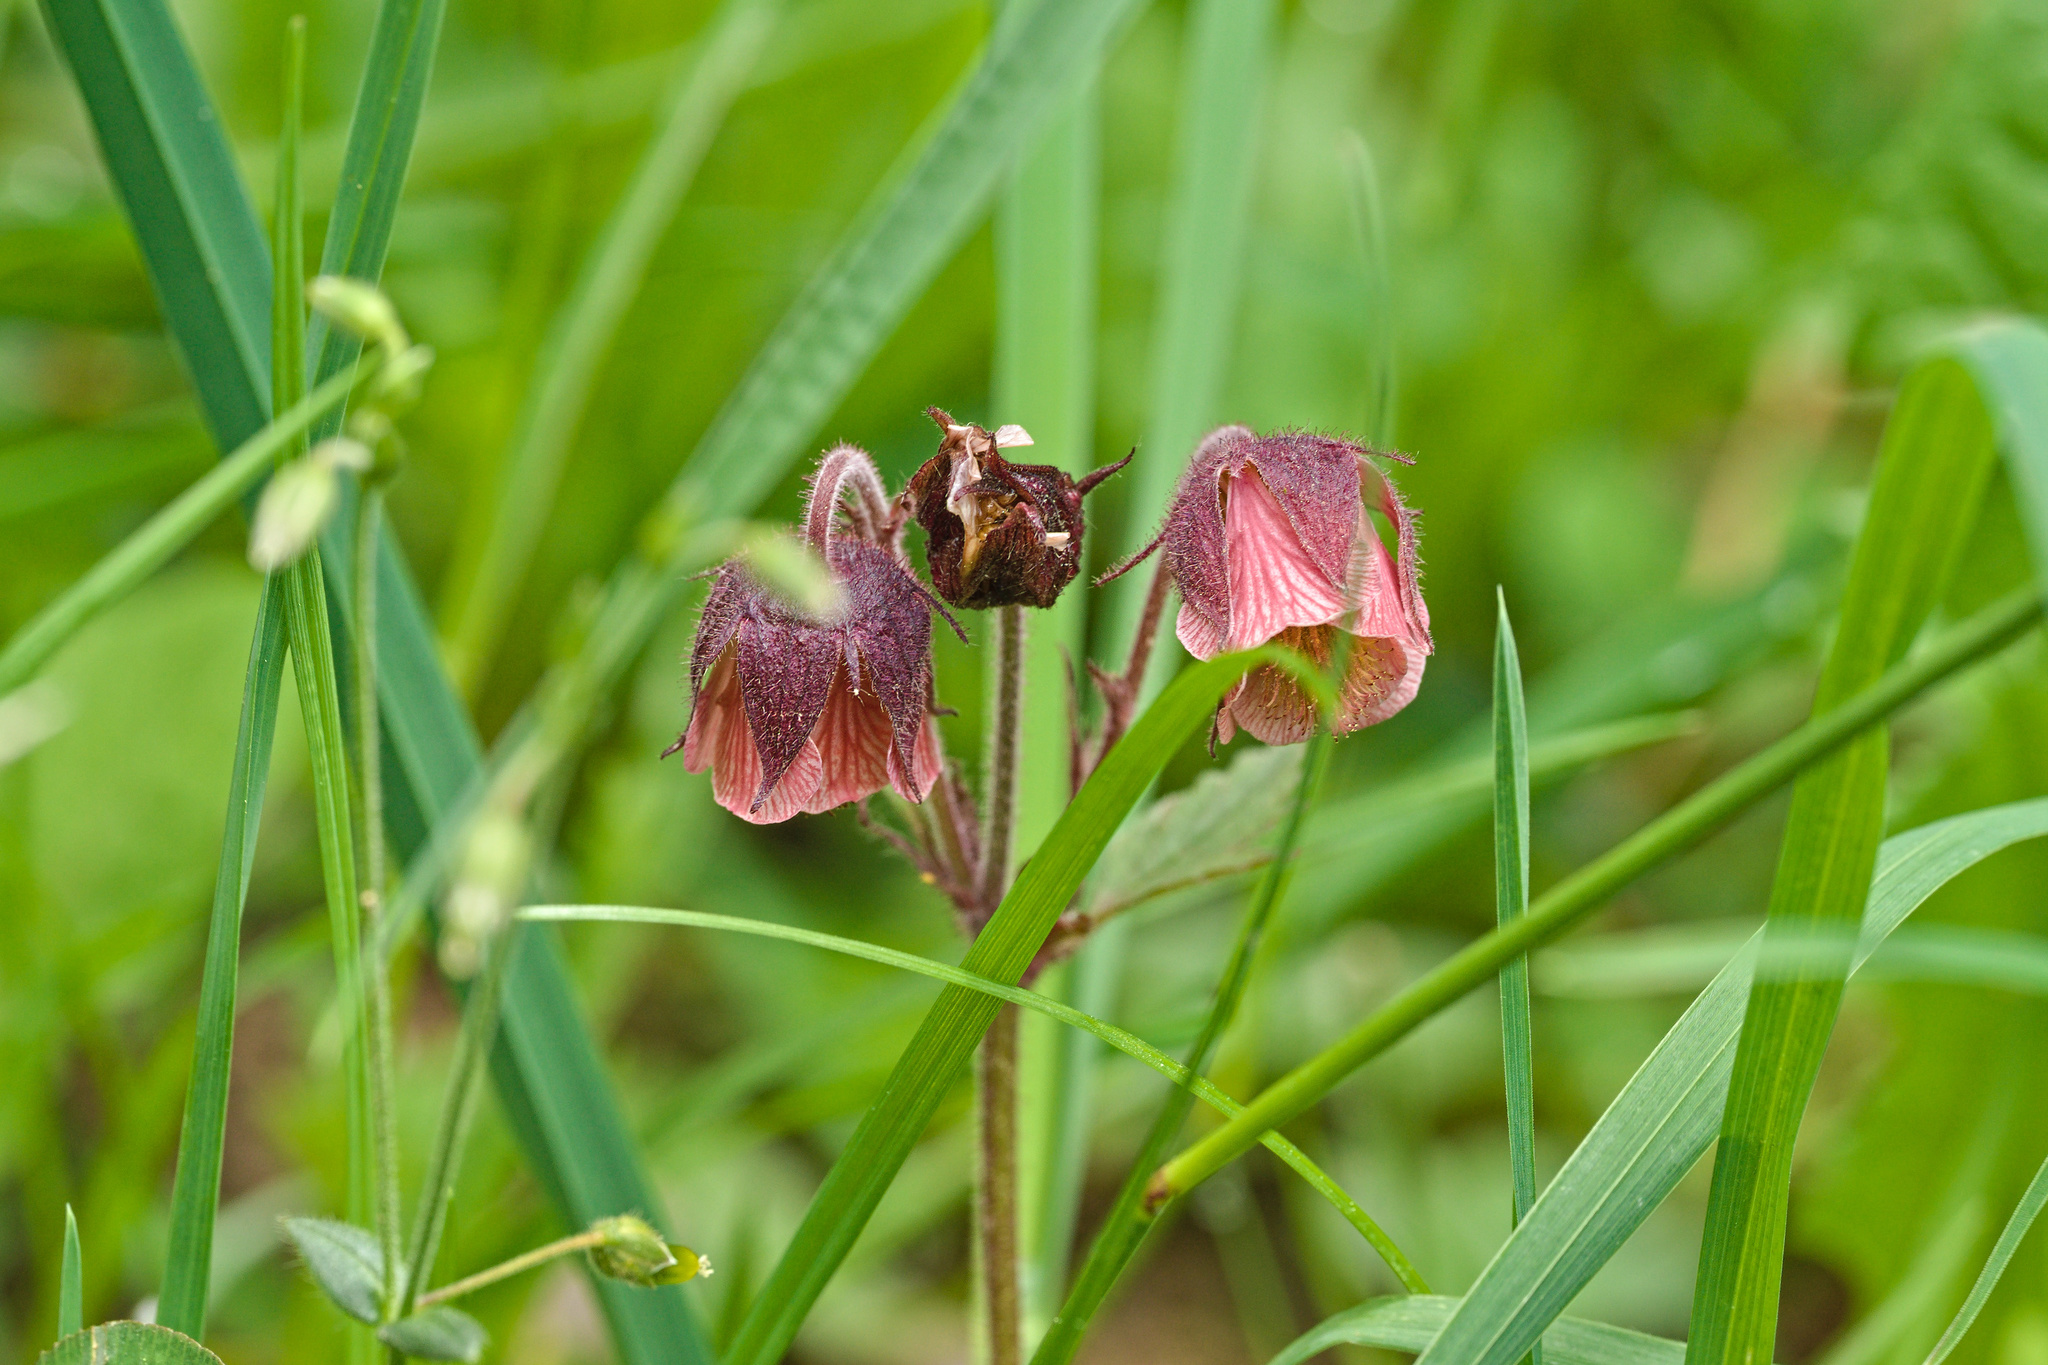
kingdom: Plantae
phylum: Tracheophyta
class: Magnoliopsida
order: Rosales
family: Rosaceae
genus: Geum
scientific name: Geum rivale
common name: Water avens
